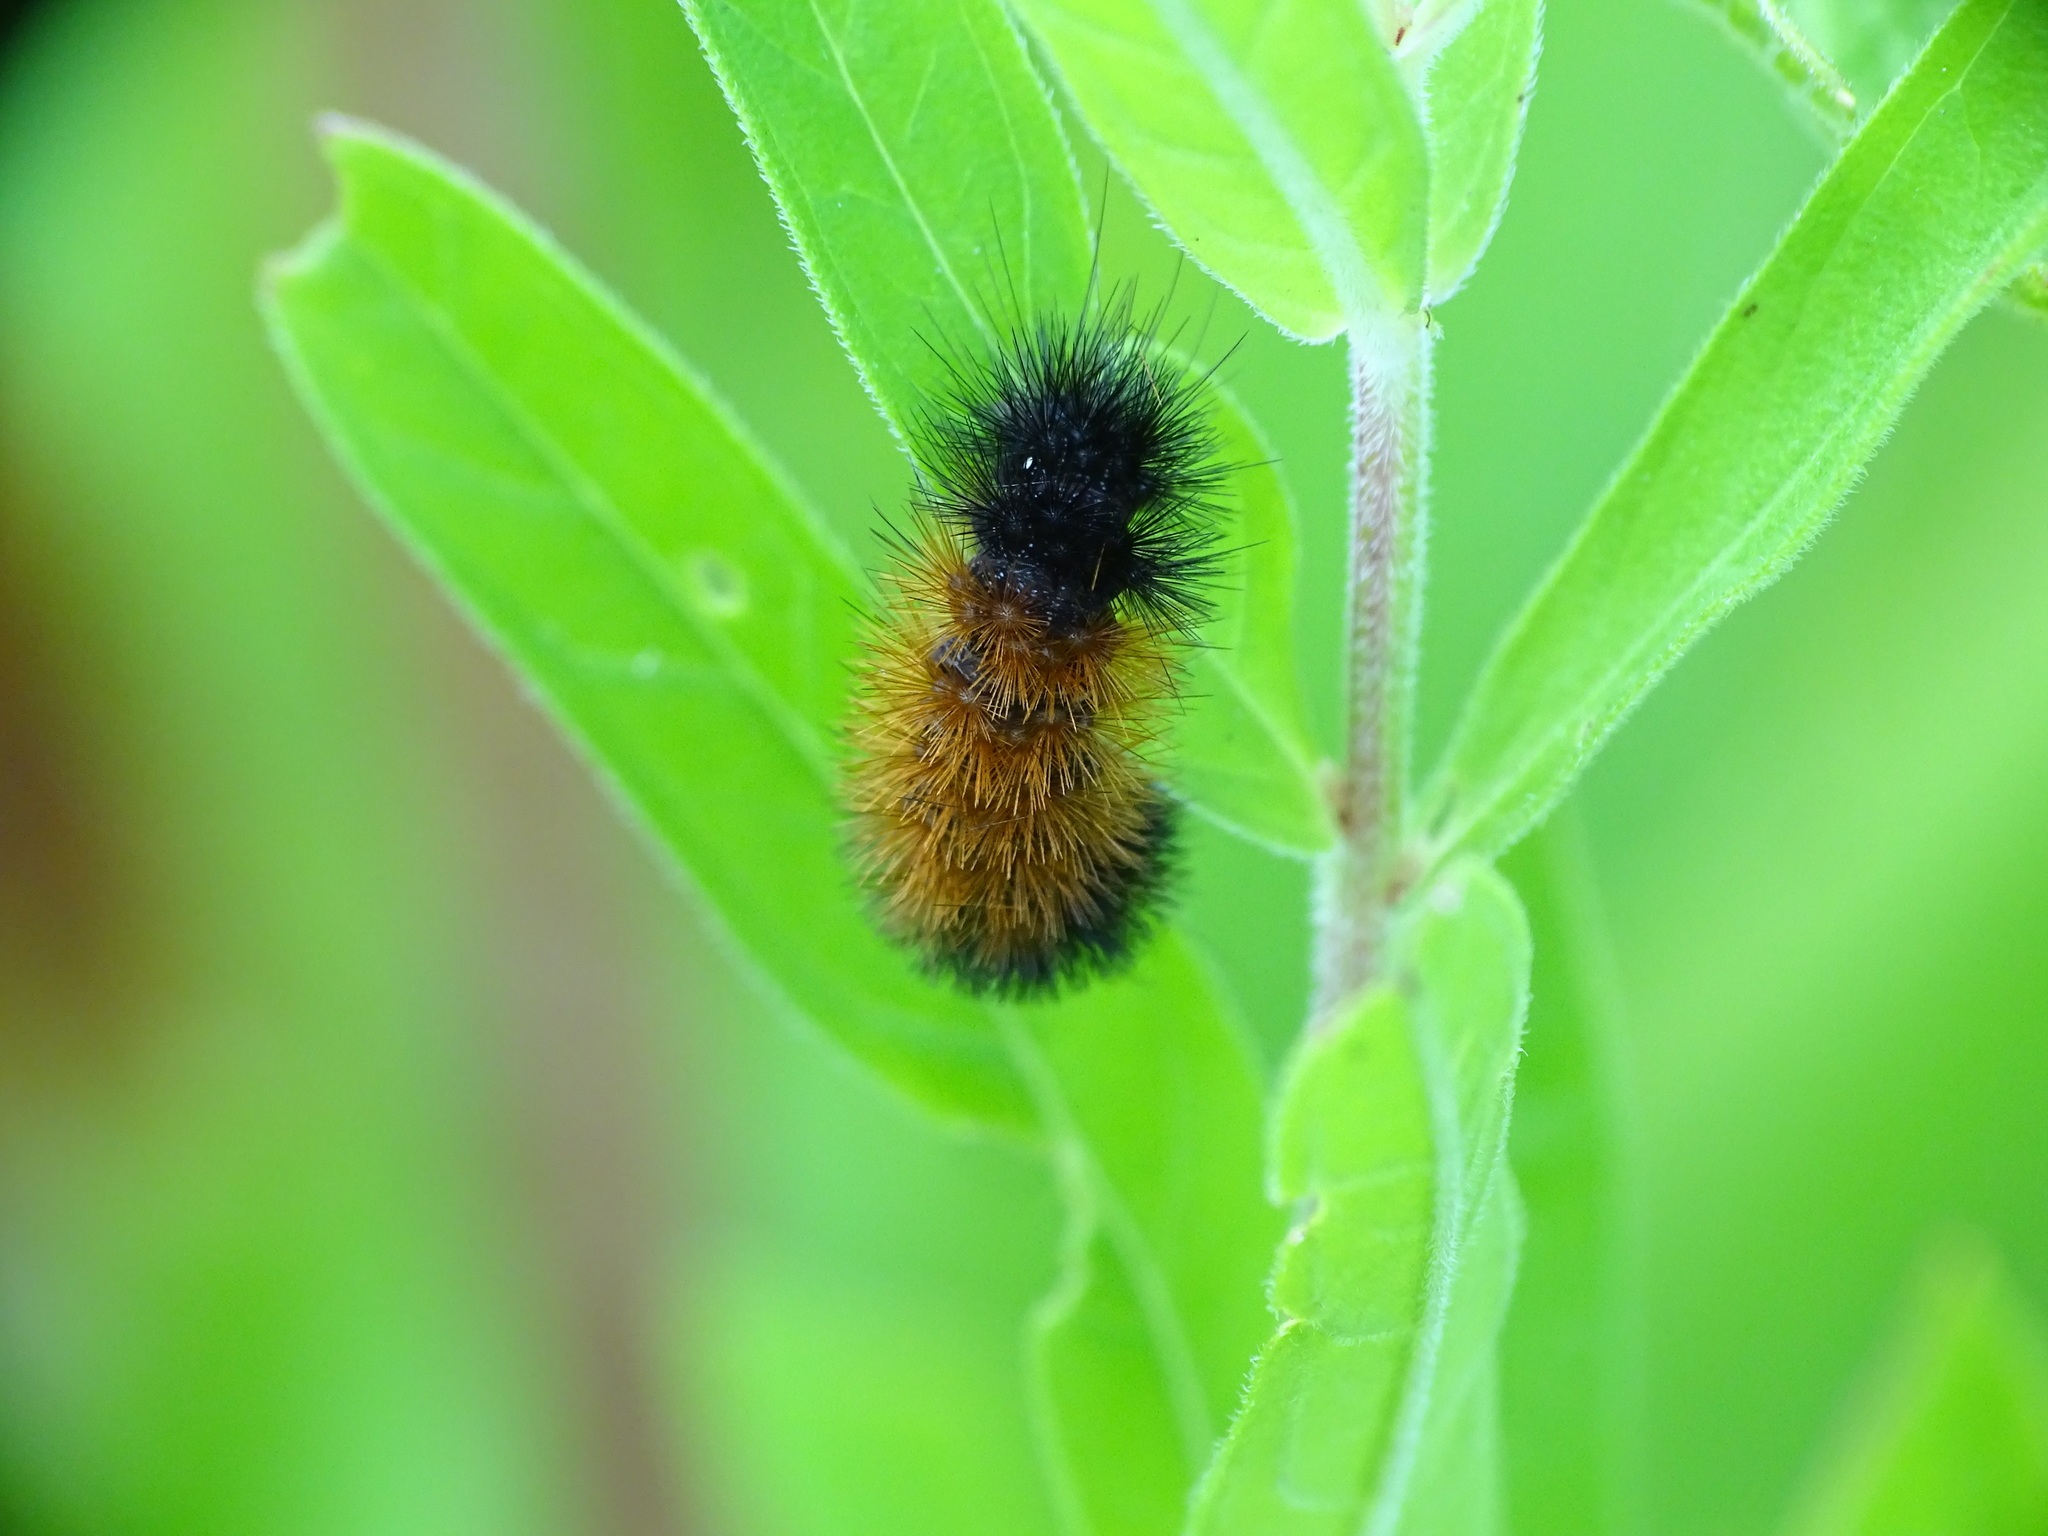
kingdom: Animalia
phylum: Arthropoda
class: Insecta
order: Lepidoptera
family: Erebidae
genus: Pyrrharctia
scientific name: Pyrrharctia isabella
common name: Isabella tiger moth
